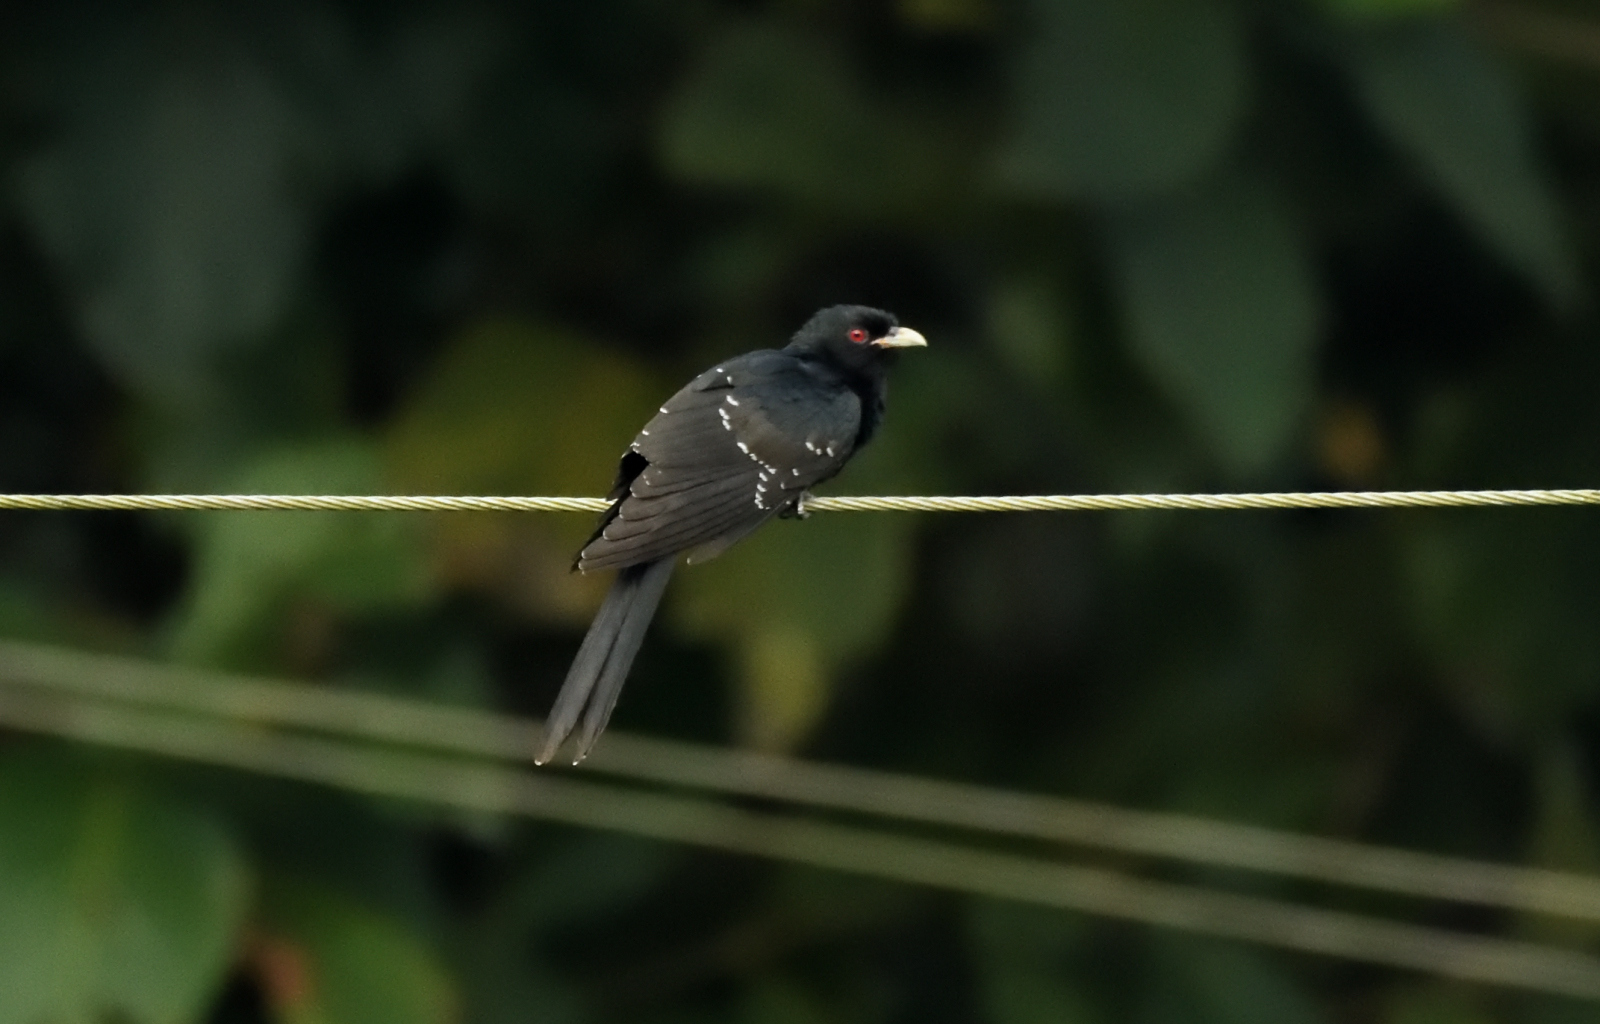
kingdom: Animalia
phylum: Chordata
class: Aves
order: Cuculiformes
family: Cuculidae
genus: Eudynamys
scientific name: Eudynamys scolopaceus
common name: Asian koel
